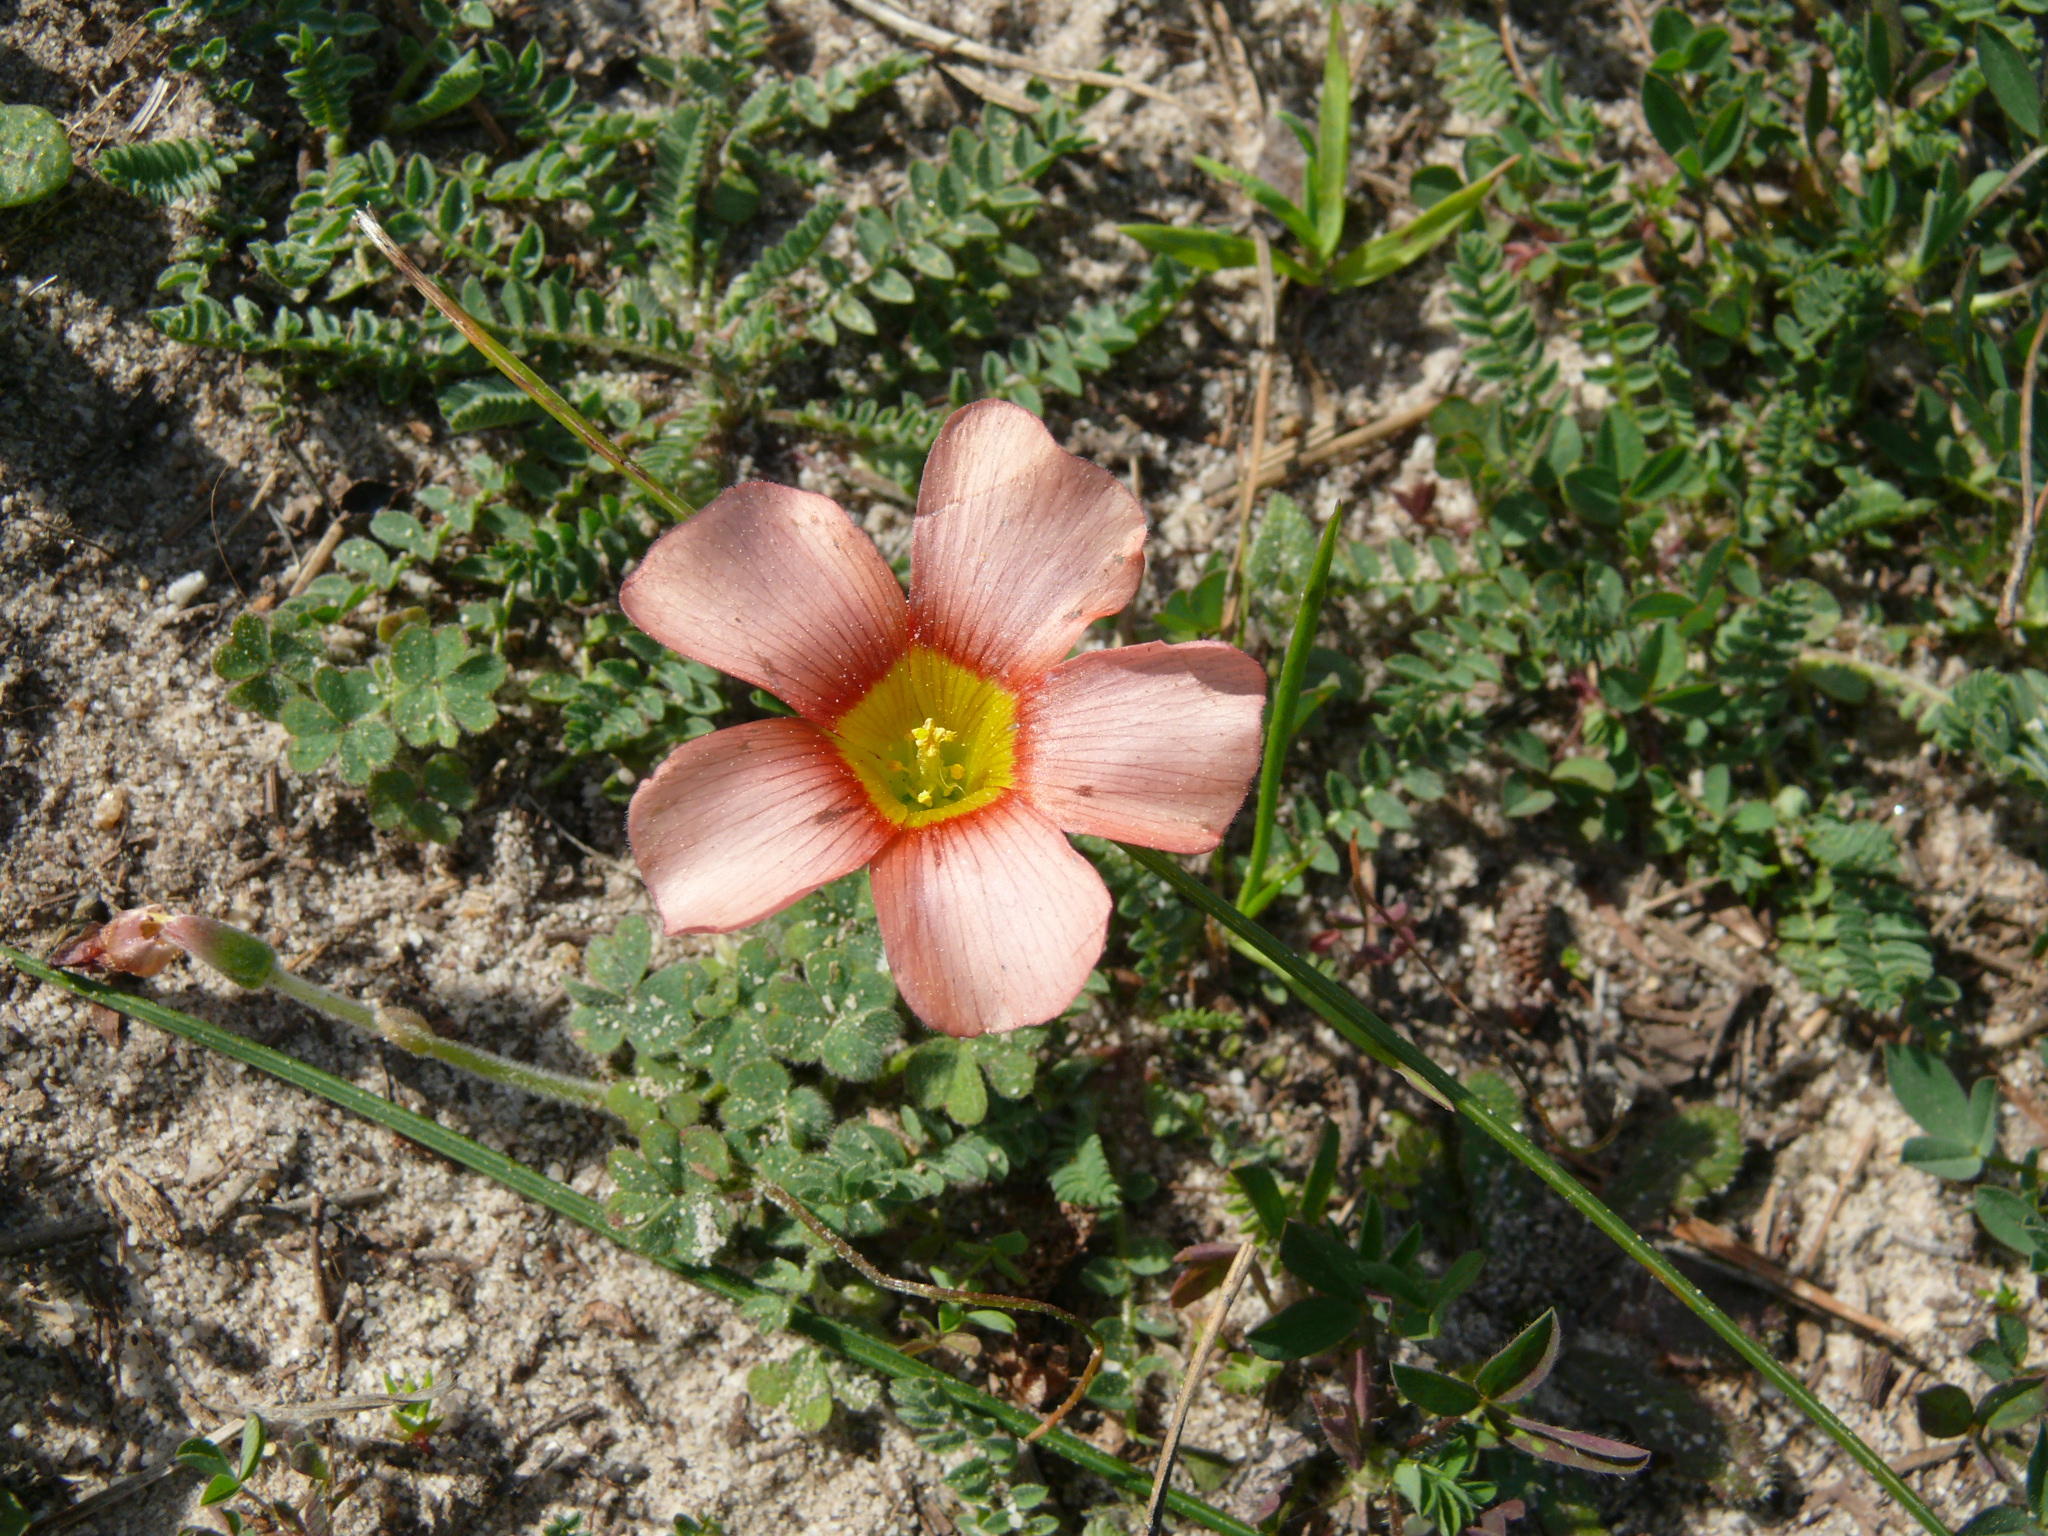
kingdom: Plantae
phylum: Tracheophyta
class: Magnoliopsida
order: Oxalidales
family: Oxalidaceae
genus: Oxalis
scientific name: Oxalis obtusa
